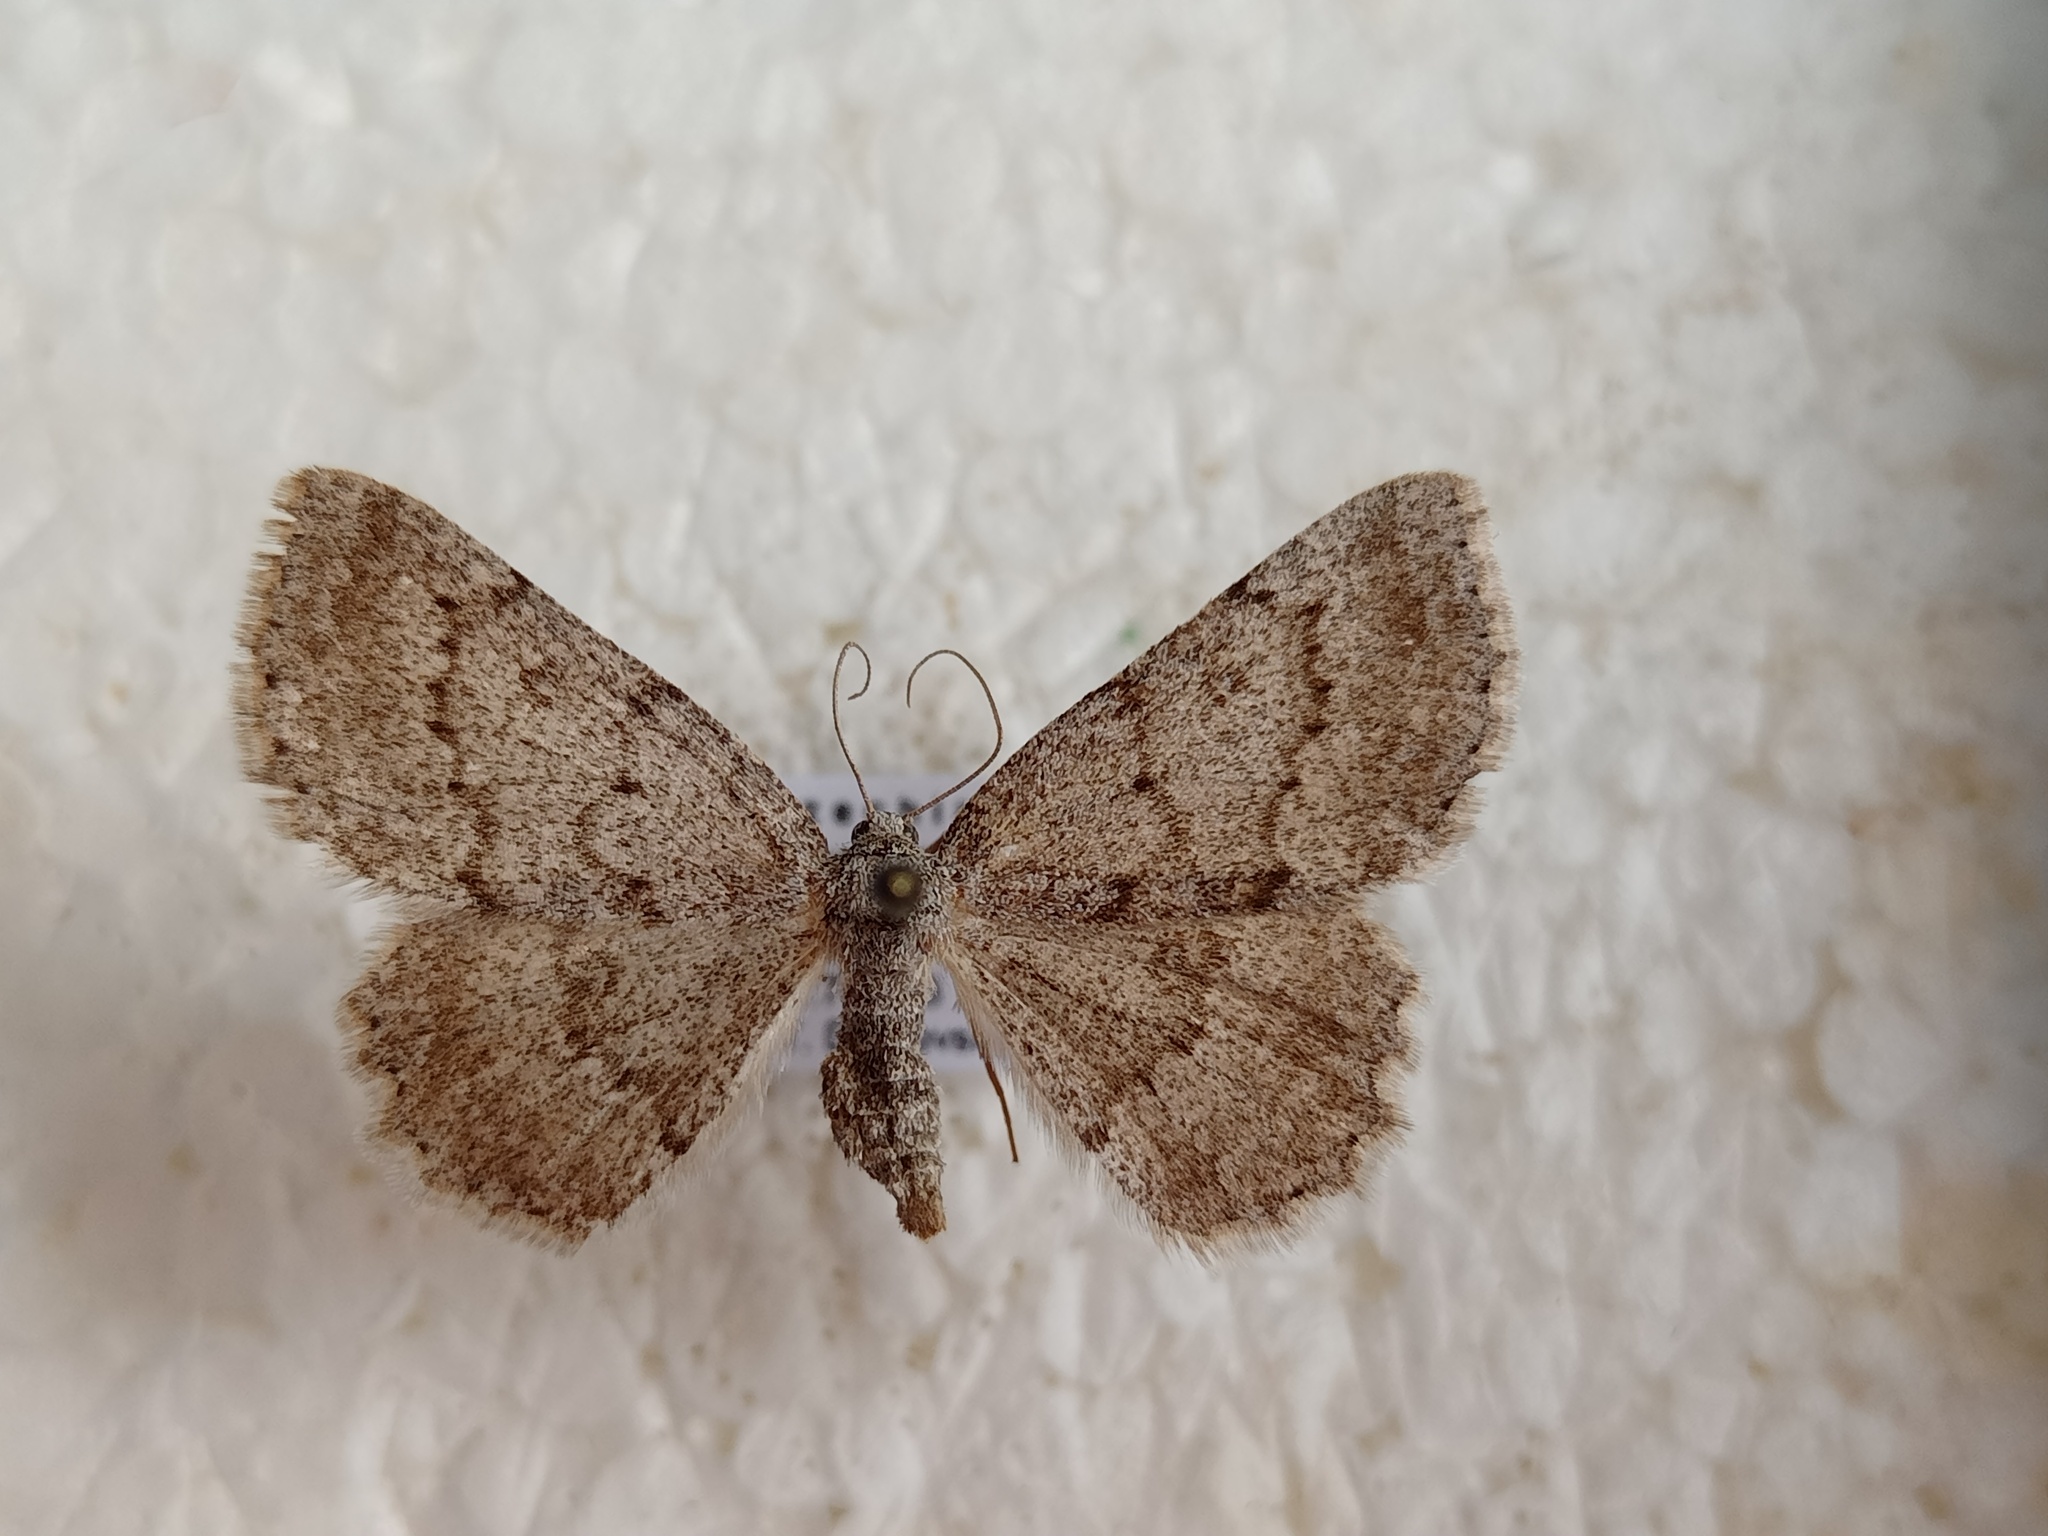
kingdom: Animalia
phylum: Arthropoda
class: Insecta
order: Lepidoptera
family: Geometridae
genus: Charissa
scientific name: Charissa ambiguata
